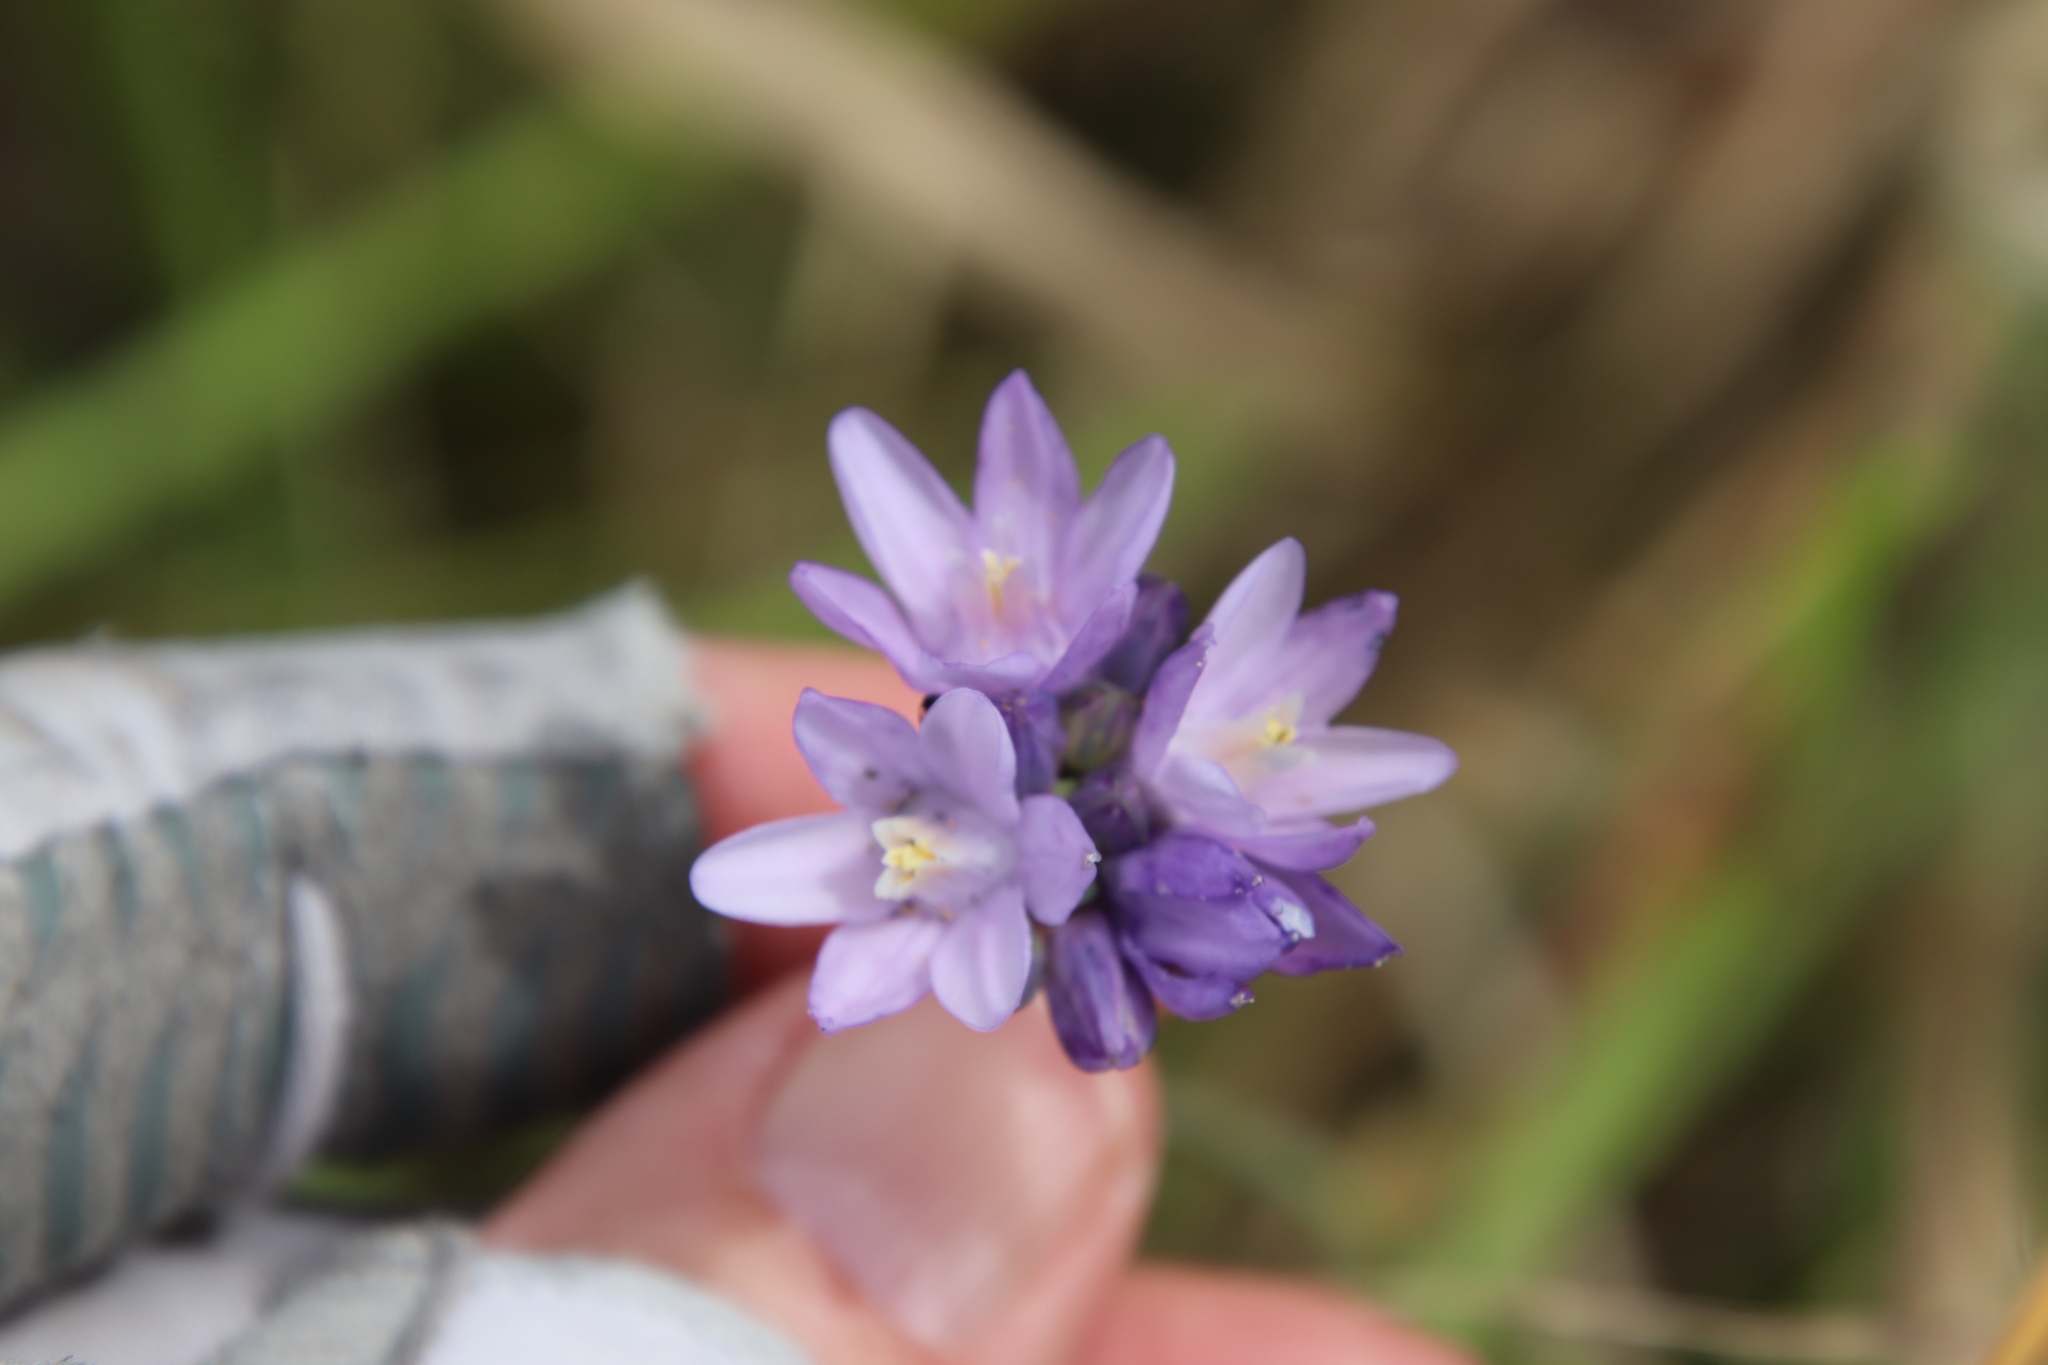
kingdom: Plantae
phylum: Tracheophyta
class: Liliopsida
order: Asparagales
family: Asparagaceae
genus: Dipterostemon
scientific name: Dipterostemon capitatus
